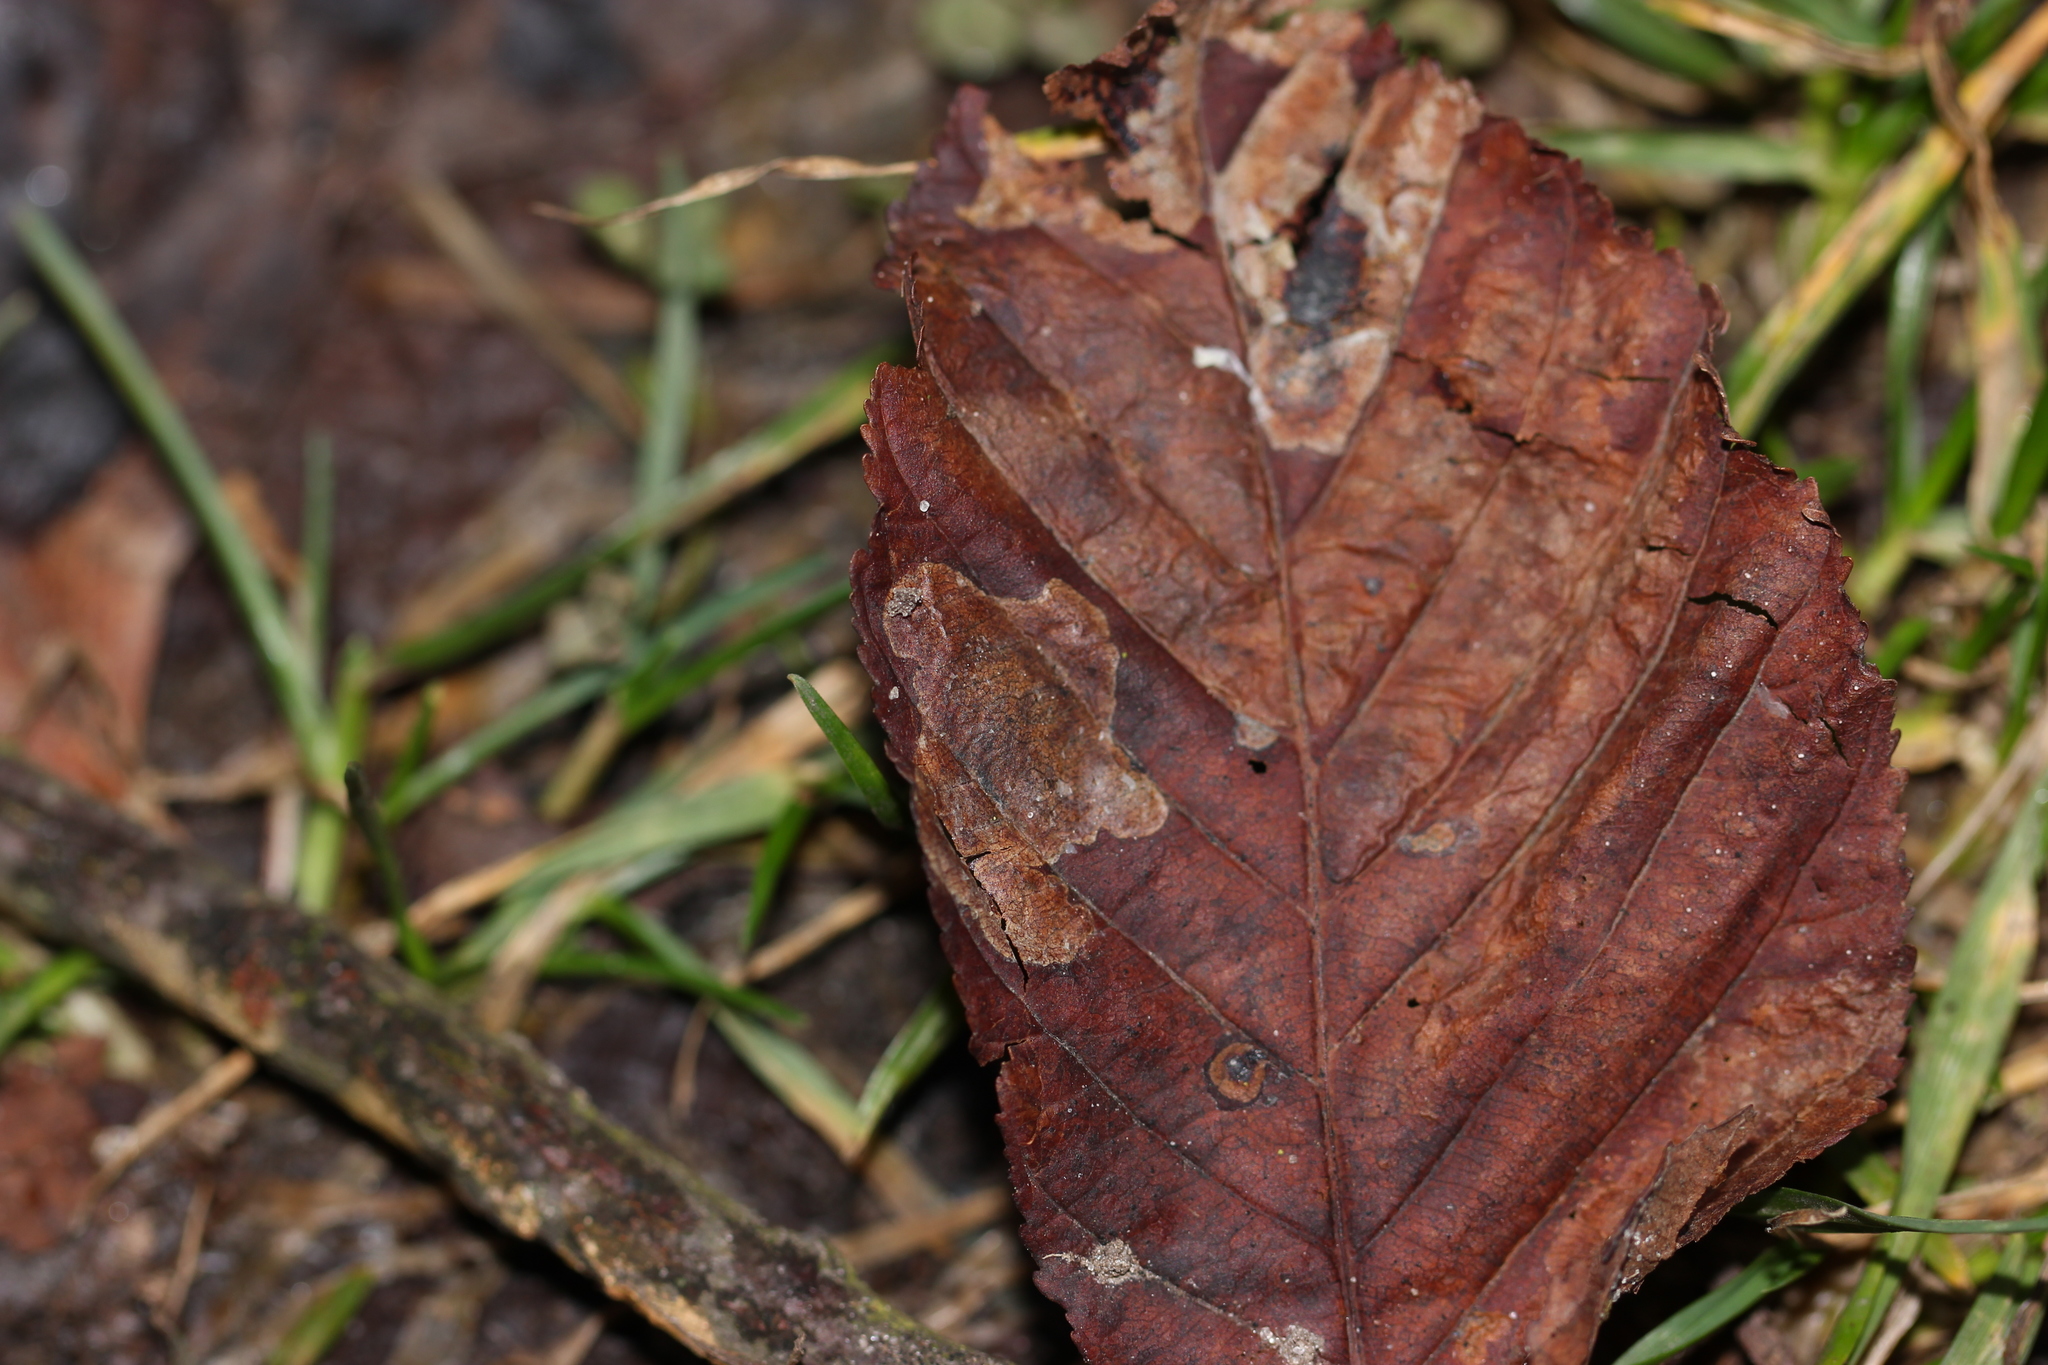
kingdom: Animalia
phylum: Arthropoda
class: Insecta
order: Lepidoptera
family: Gracillariidae
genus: Cameraria
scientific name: Cameraria ohridella
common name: Horse-chestnut leaf-miner
